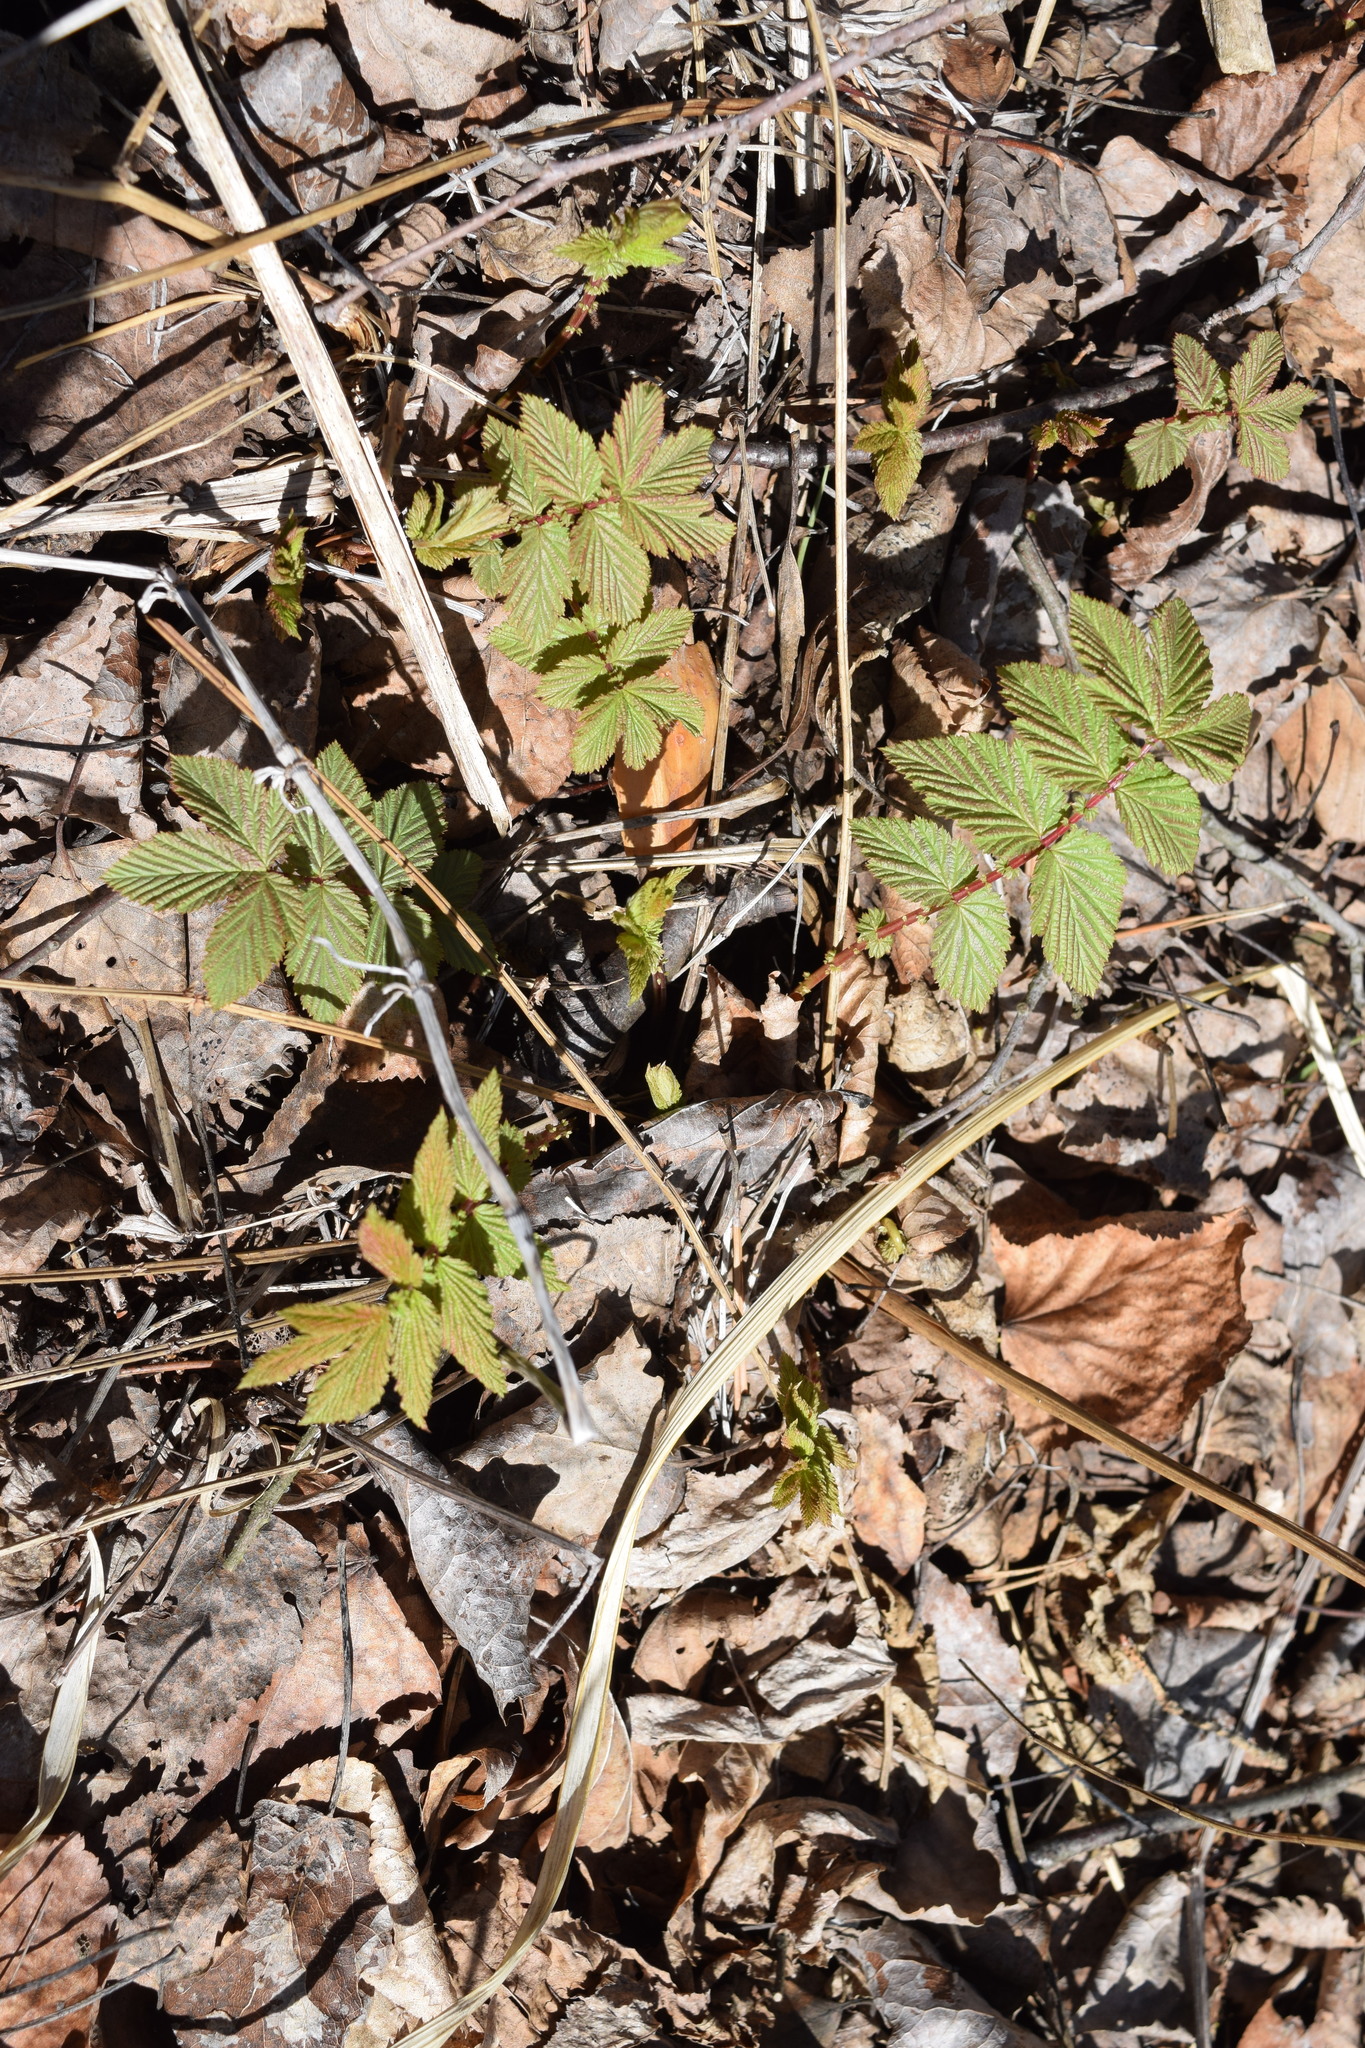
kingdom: Plantae
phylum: Tracheophyta
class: Magnoliopsida
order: Rosales
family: Rosaceae
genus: Filipendula
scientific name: Filipendula ulmaria
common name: Meadowsweet
